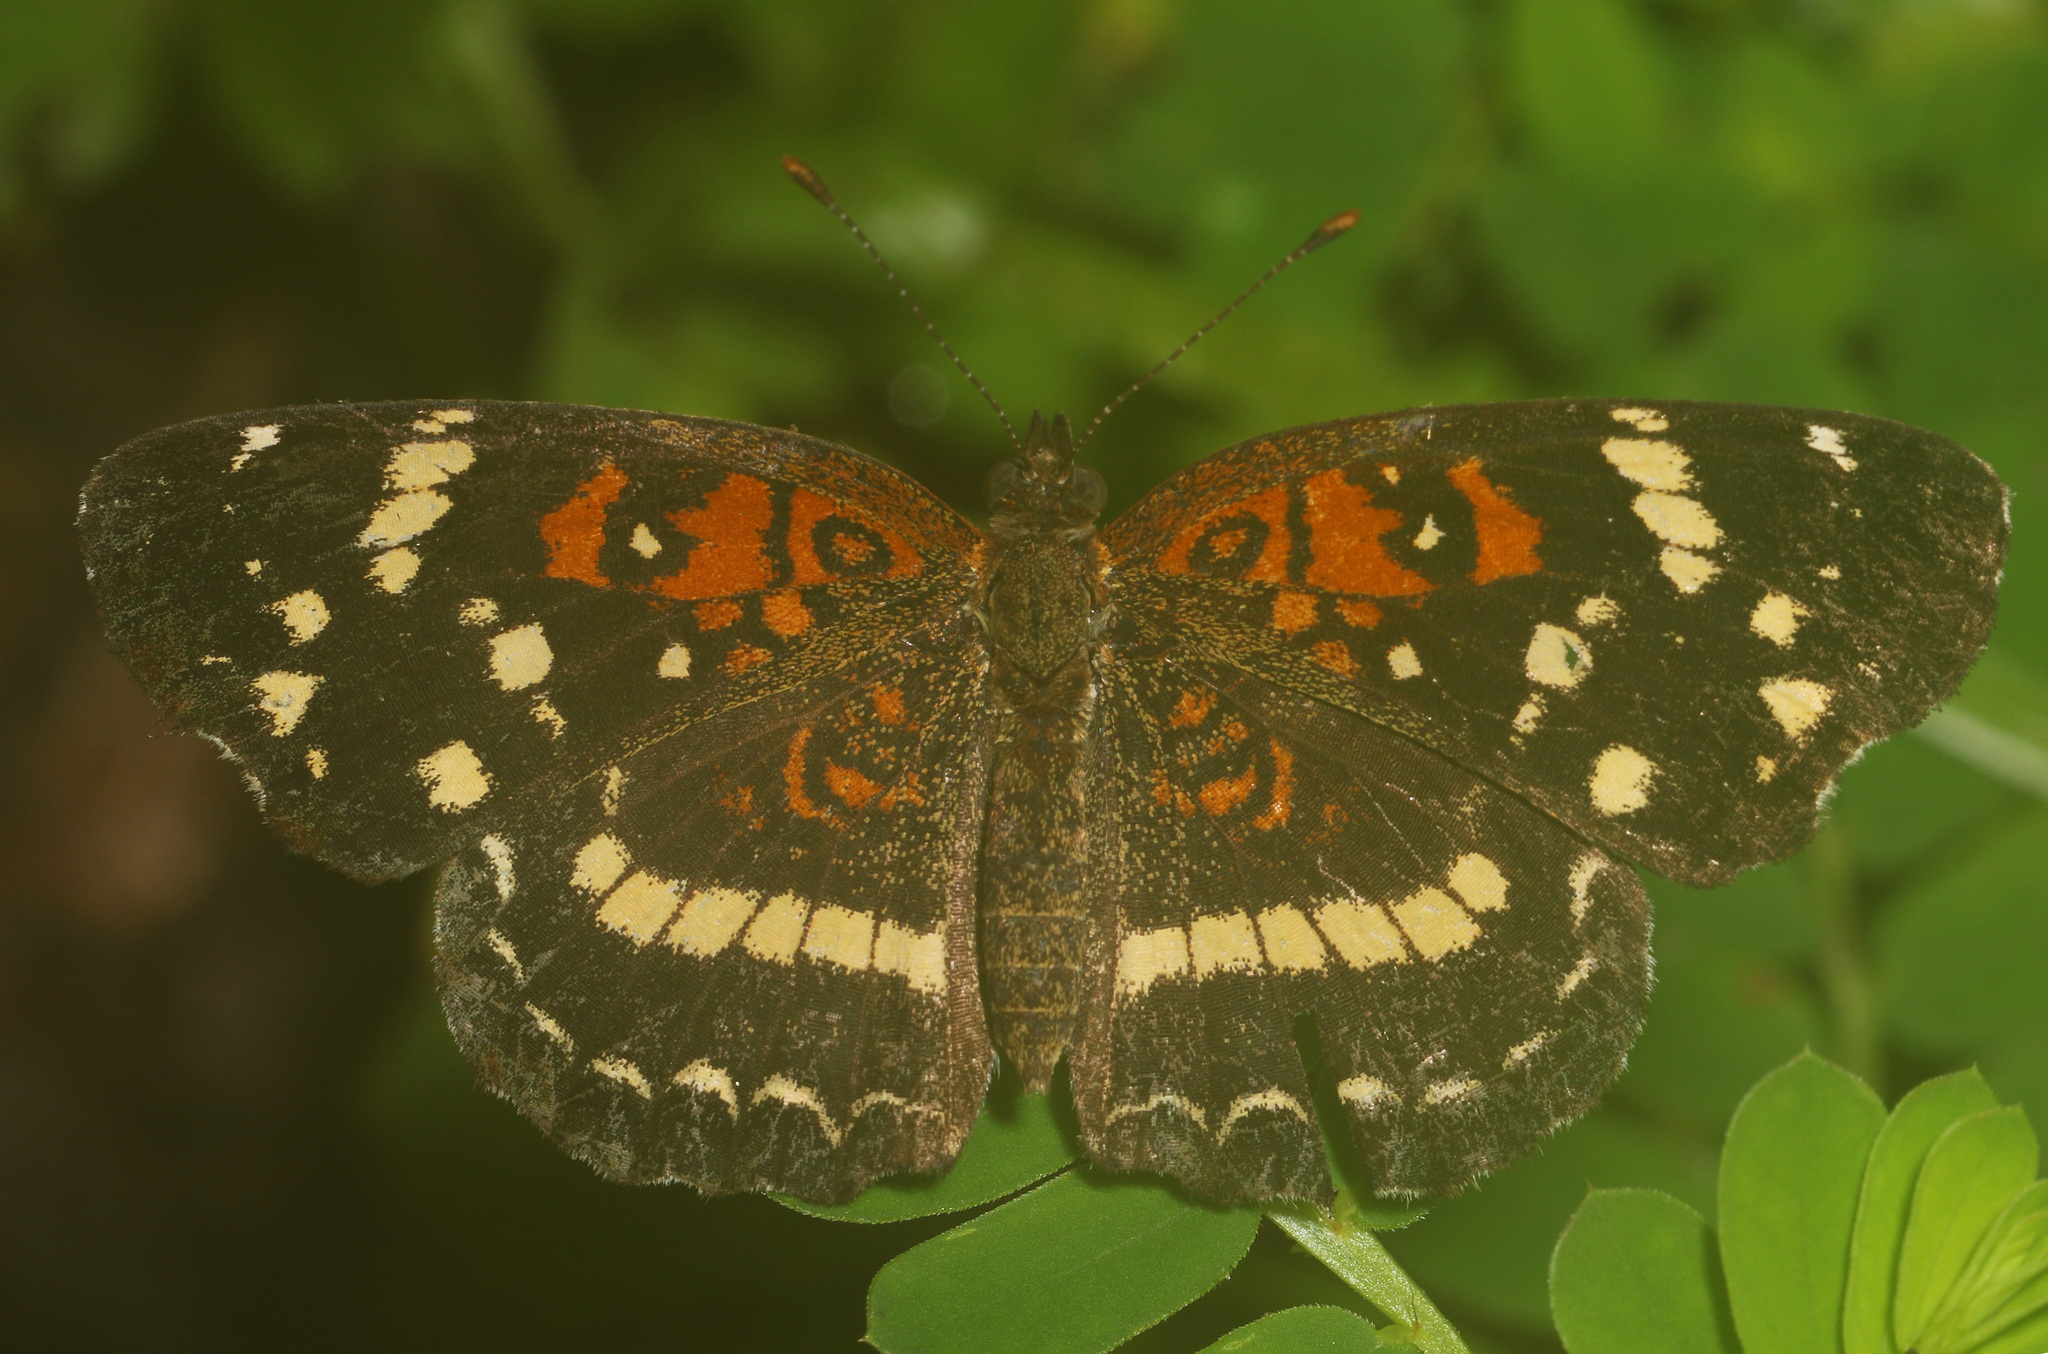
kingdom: Animalia
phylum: Arthropoda
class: Insecta
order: Lepidoptera
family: Nymphalidae
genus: Anthanassa
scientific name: Anthanassa texana
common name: Texan crescent
